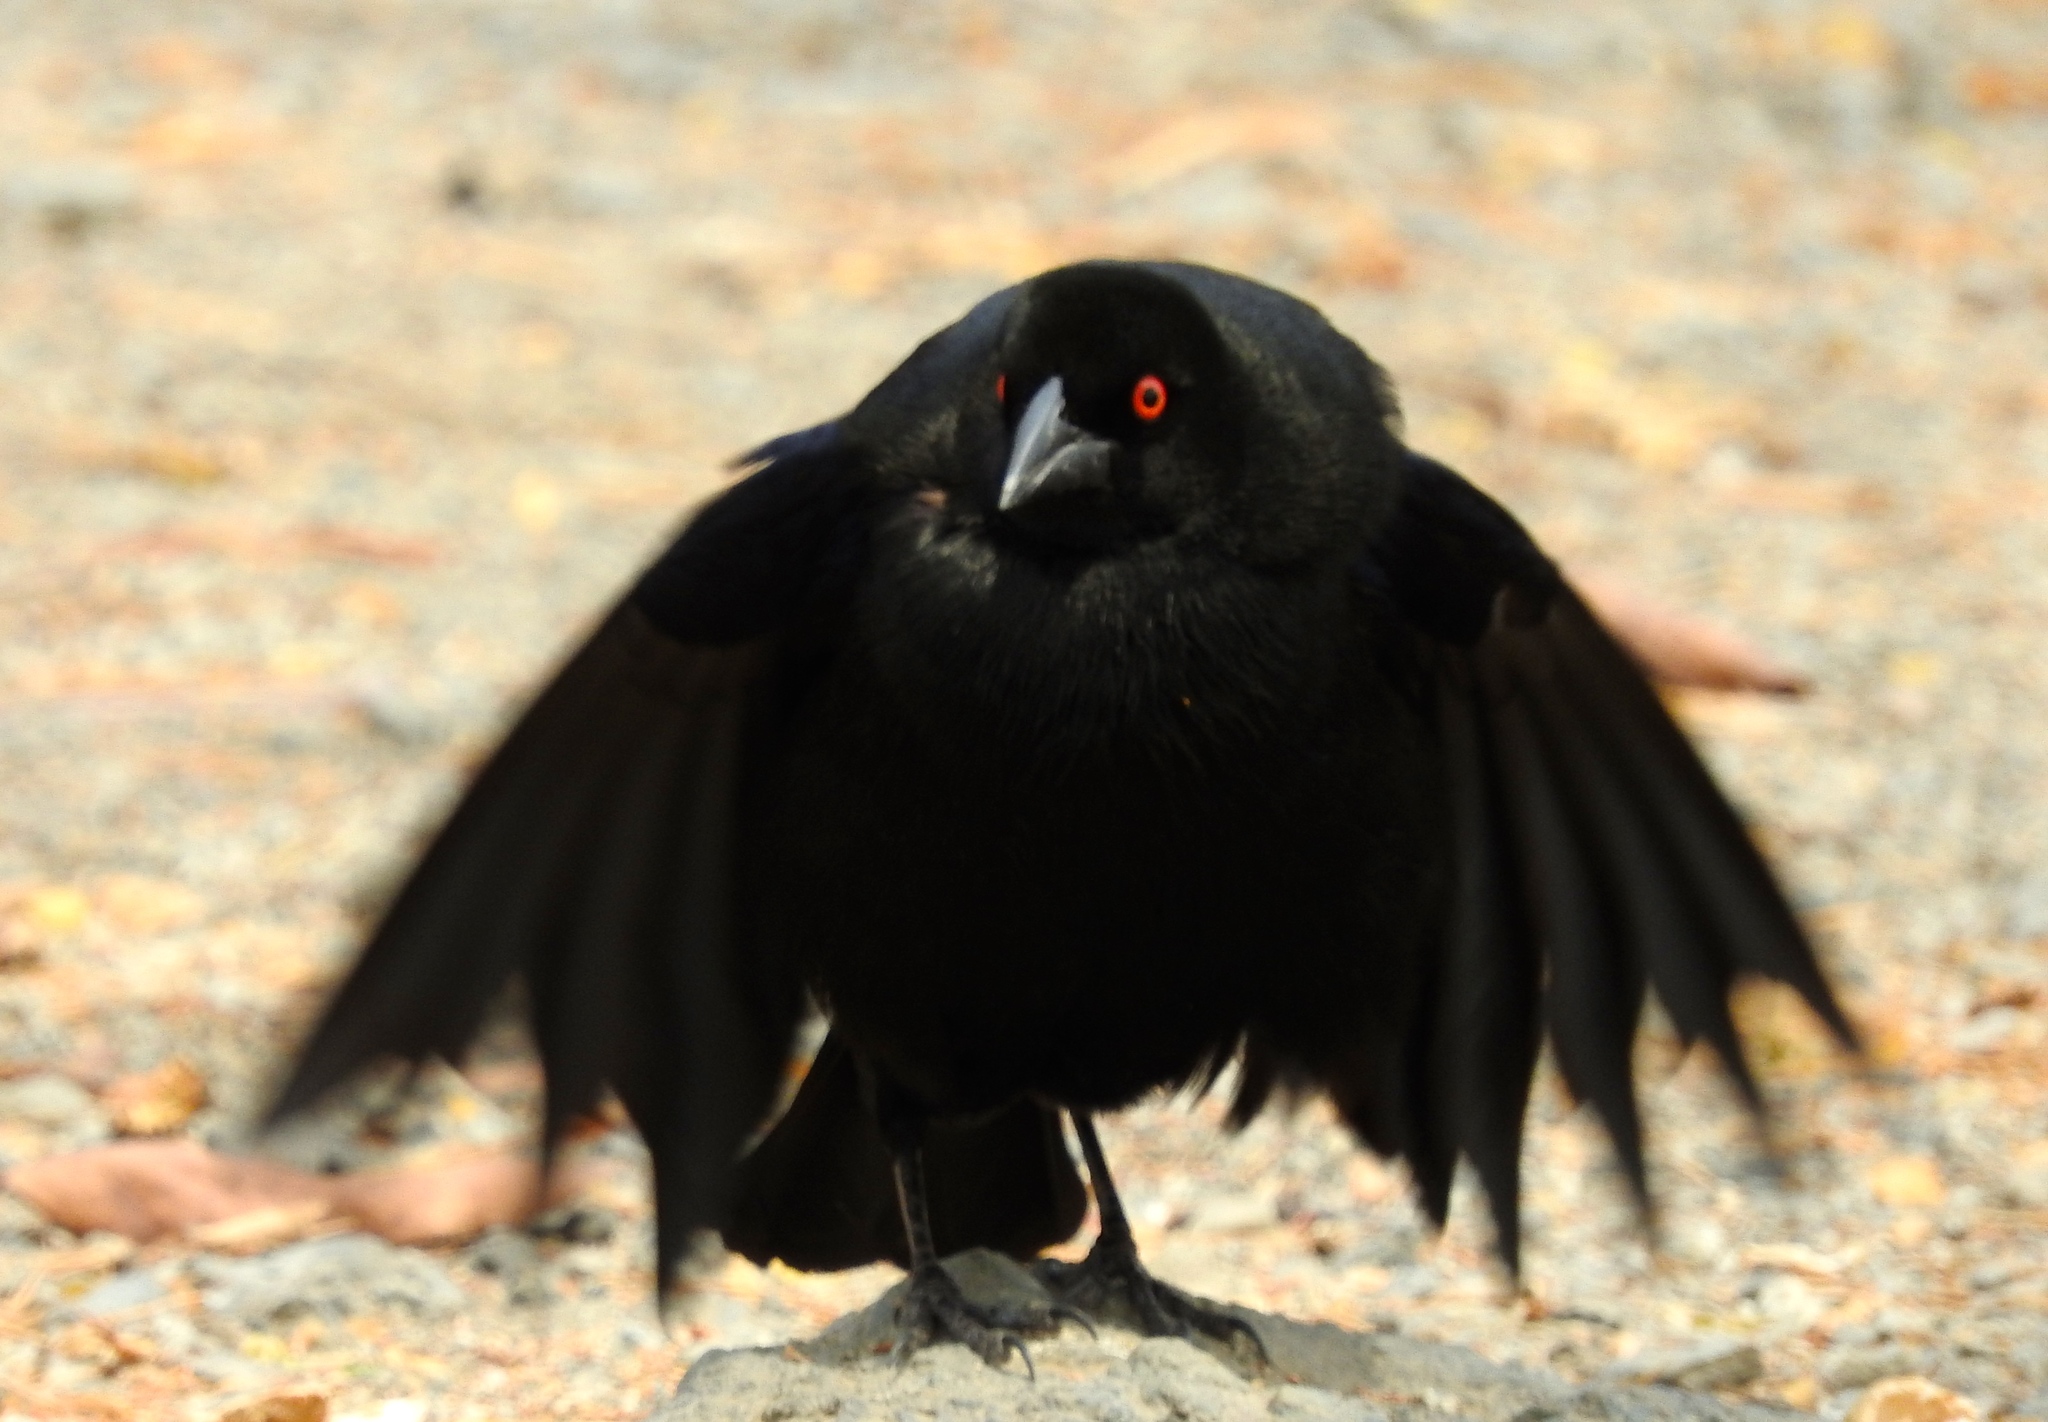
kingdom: Animalia
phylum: Chordata
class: Aves
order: Passeriformes
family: Icteridae
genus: Molothrus
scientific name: Molothrus aeneus
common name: Bronzed cowbird
